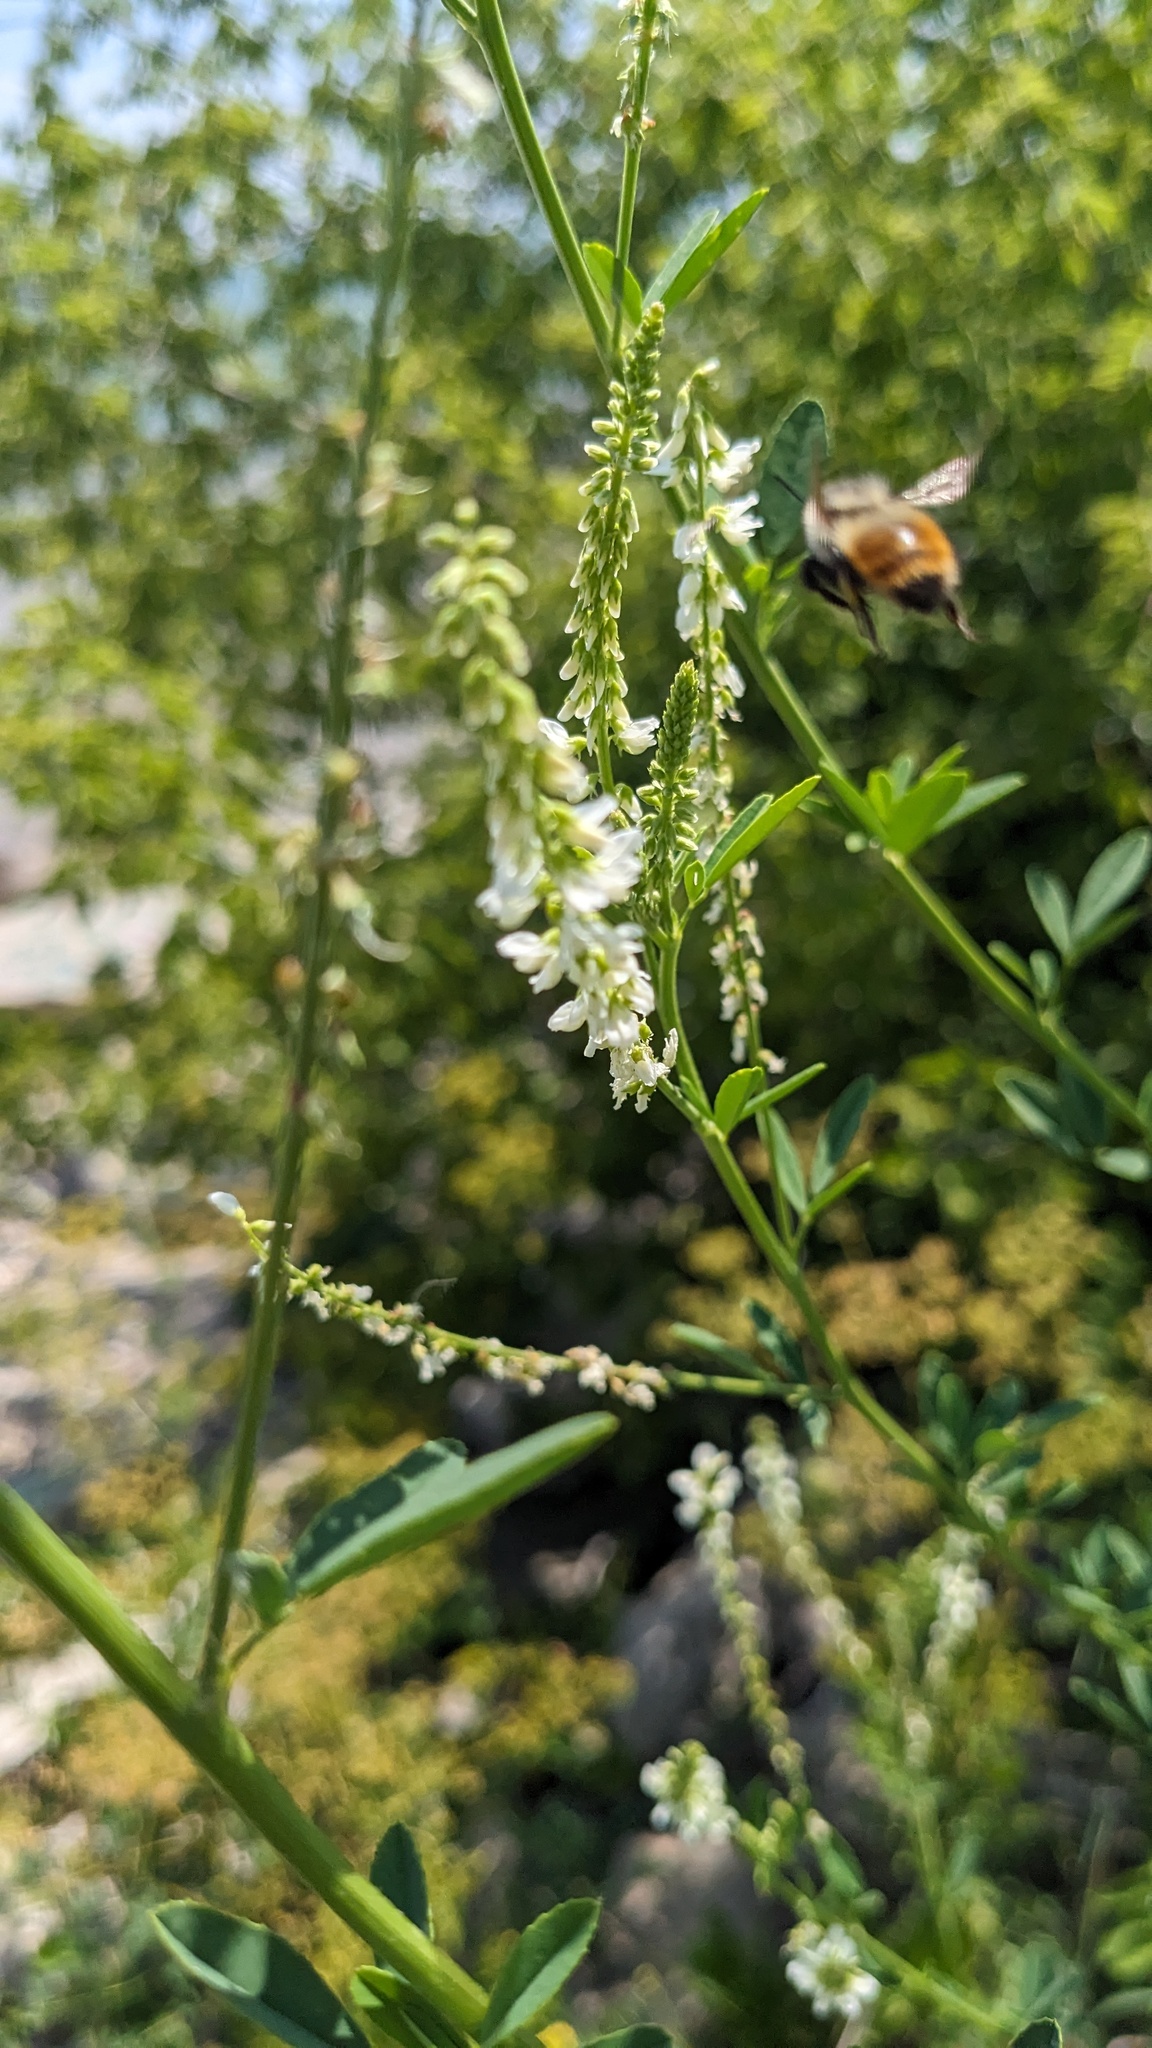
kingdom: Animalia
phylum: Arthropoda
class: Insecta
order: Hymenoptera
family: Apidae
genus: Bombus
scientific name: Bombus rufocinctus
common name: Red-belted bumble bee
